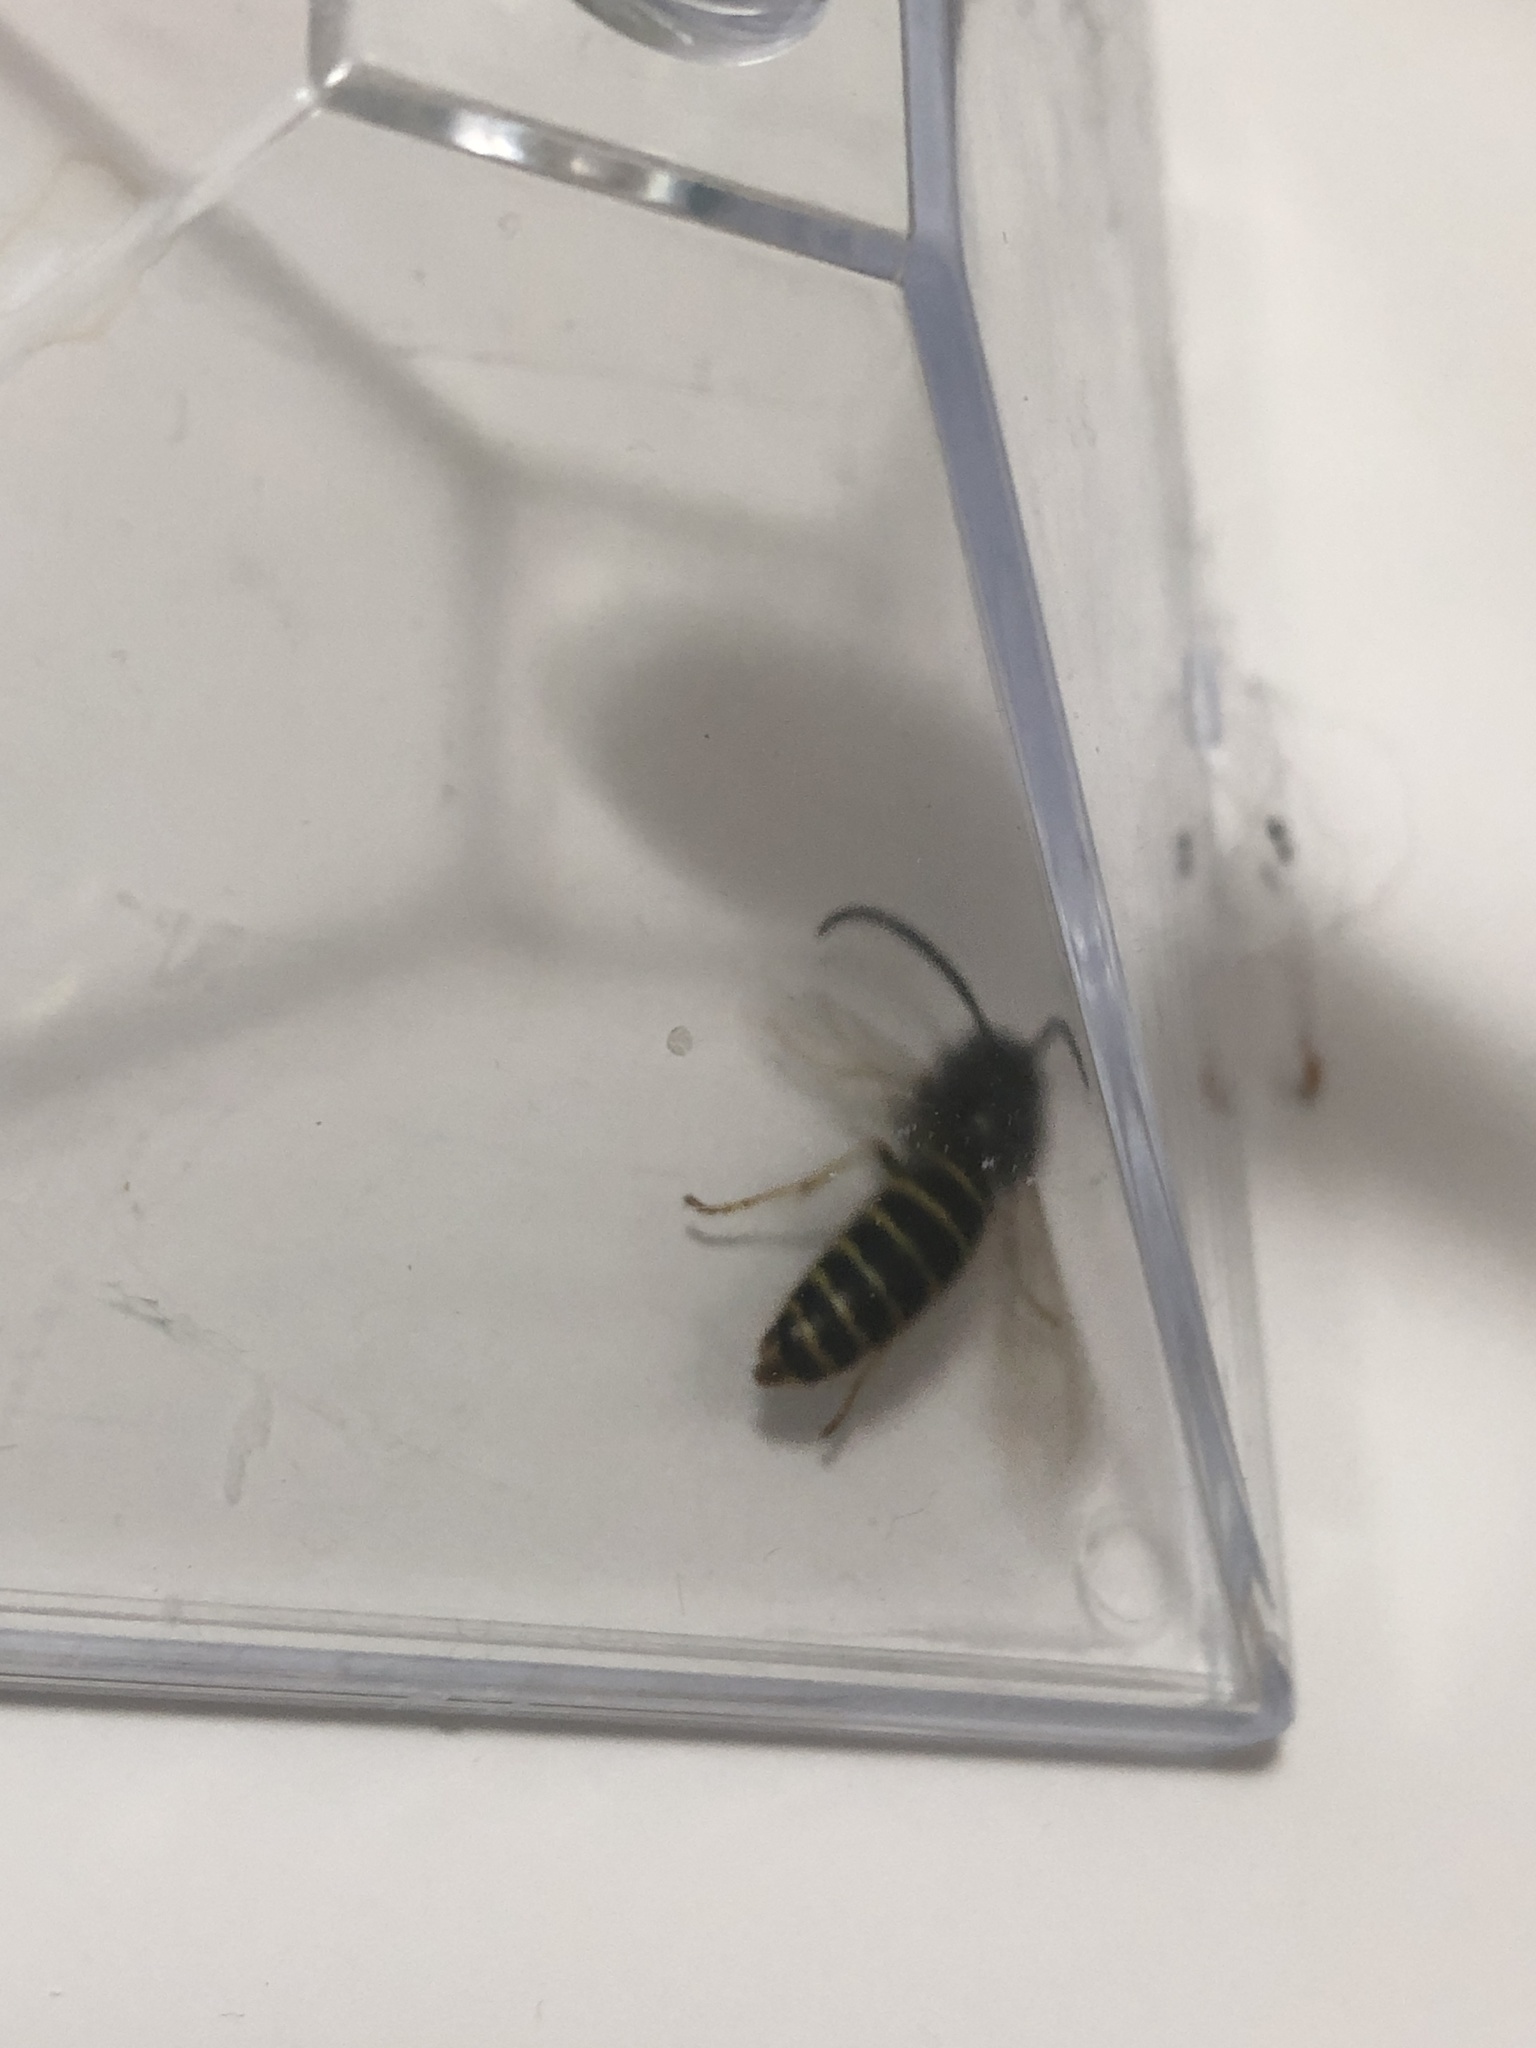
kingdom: Animalia
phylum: Arthropoda
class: Insecta
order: Hymenoptera
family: Vespidae
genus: Vespula
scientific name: Vespula
